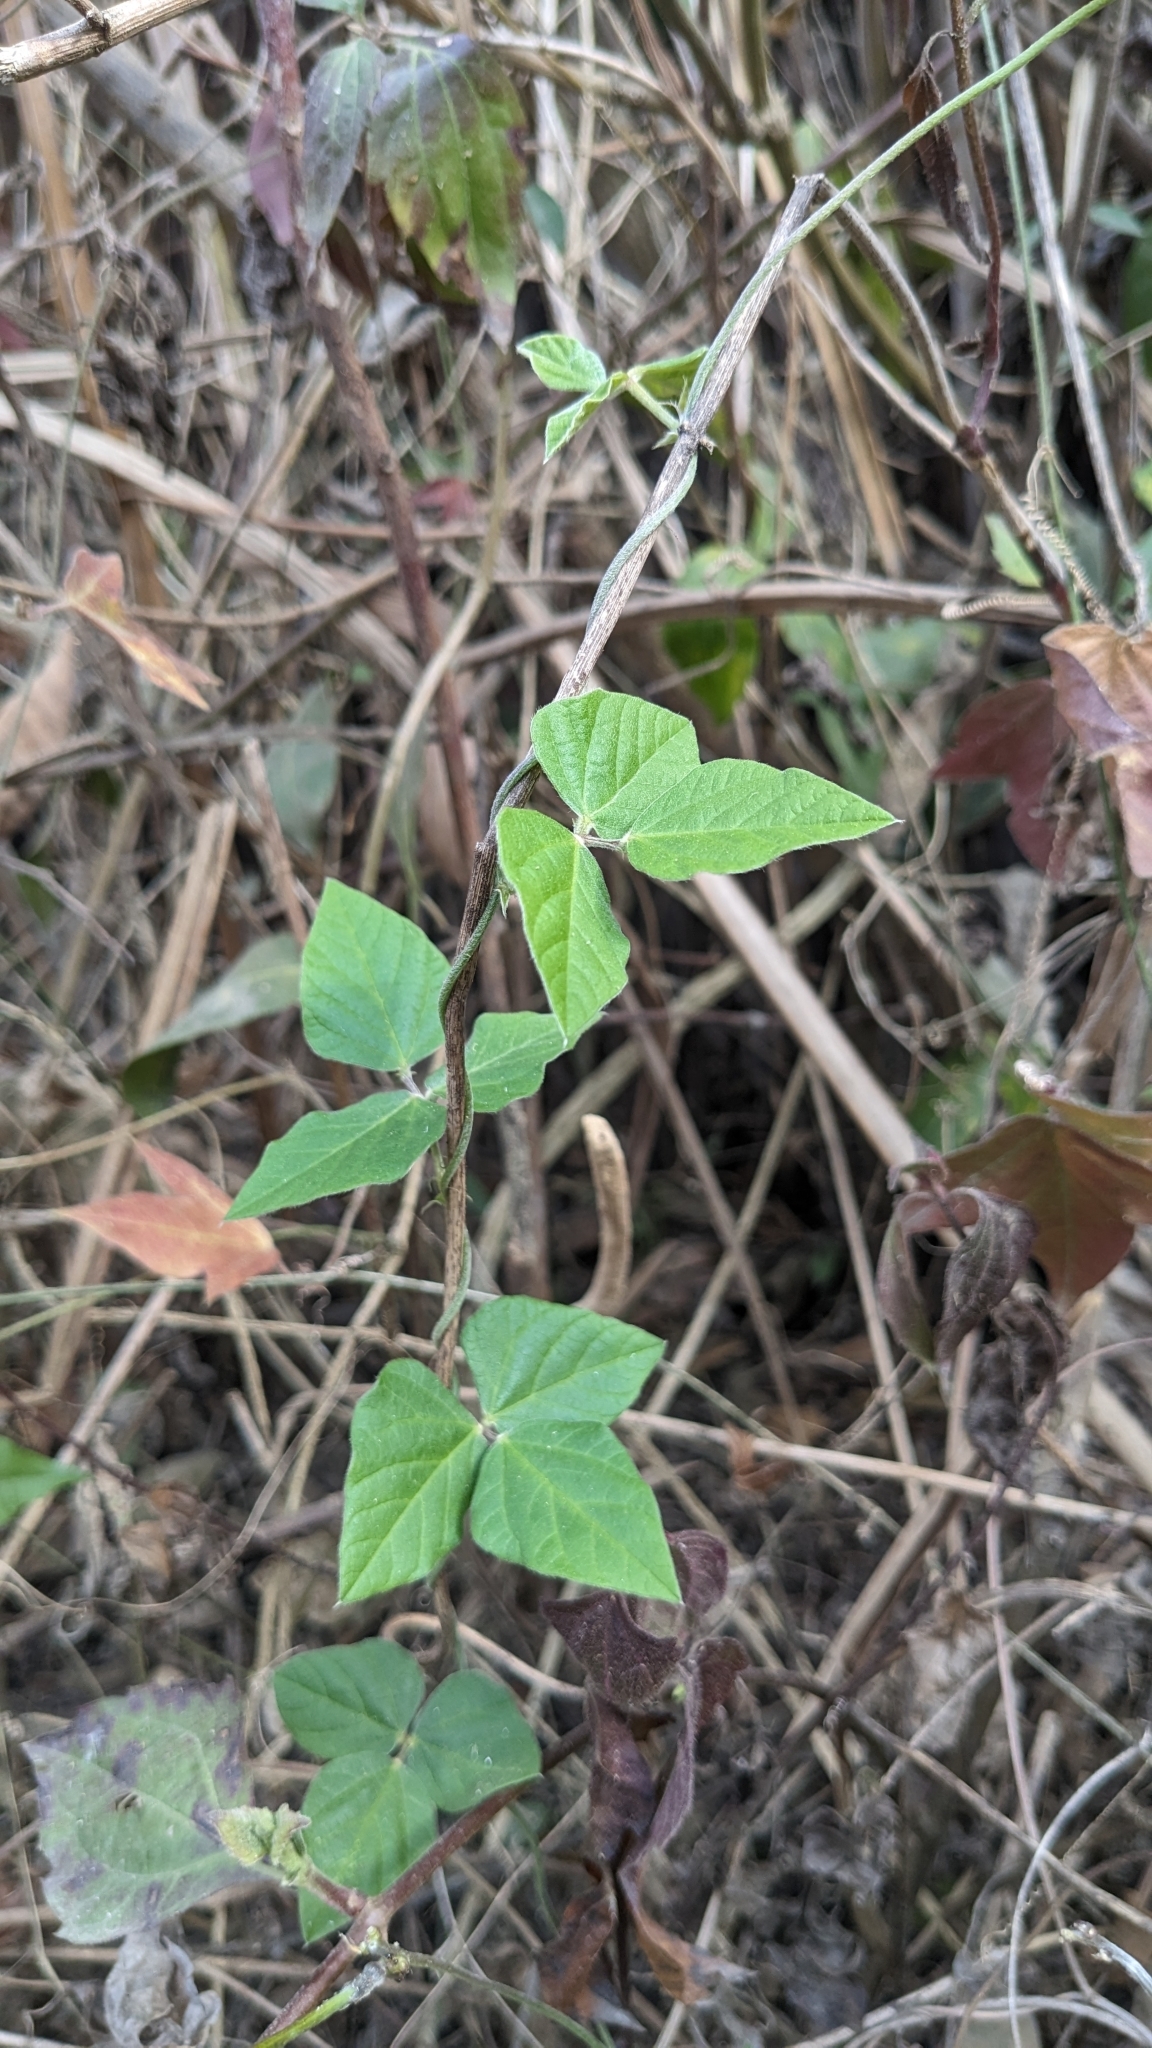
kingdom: Plantae
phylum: Tracheophyta
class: Magnoliopsida
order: Fabales
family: Fabaceae
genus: Macroptilium
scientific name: Macroptilium atropurpureum
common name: Purple bushbean
